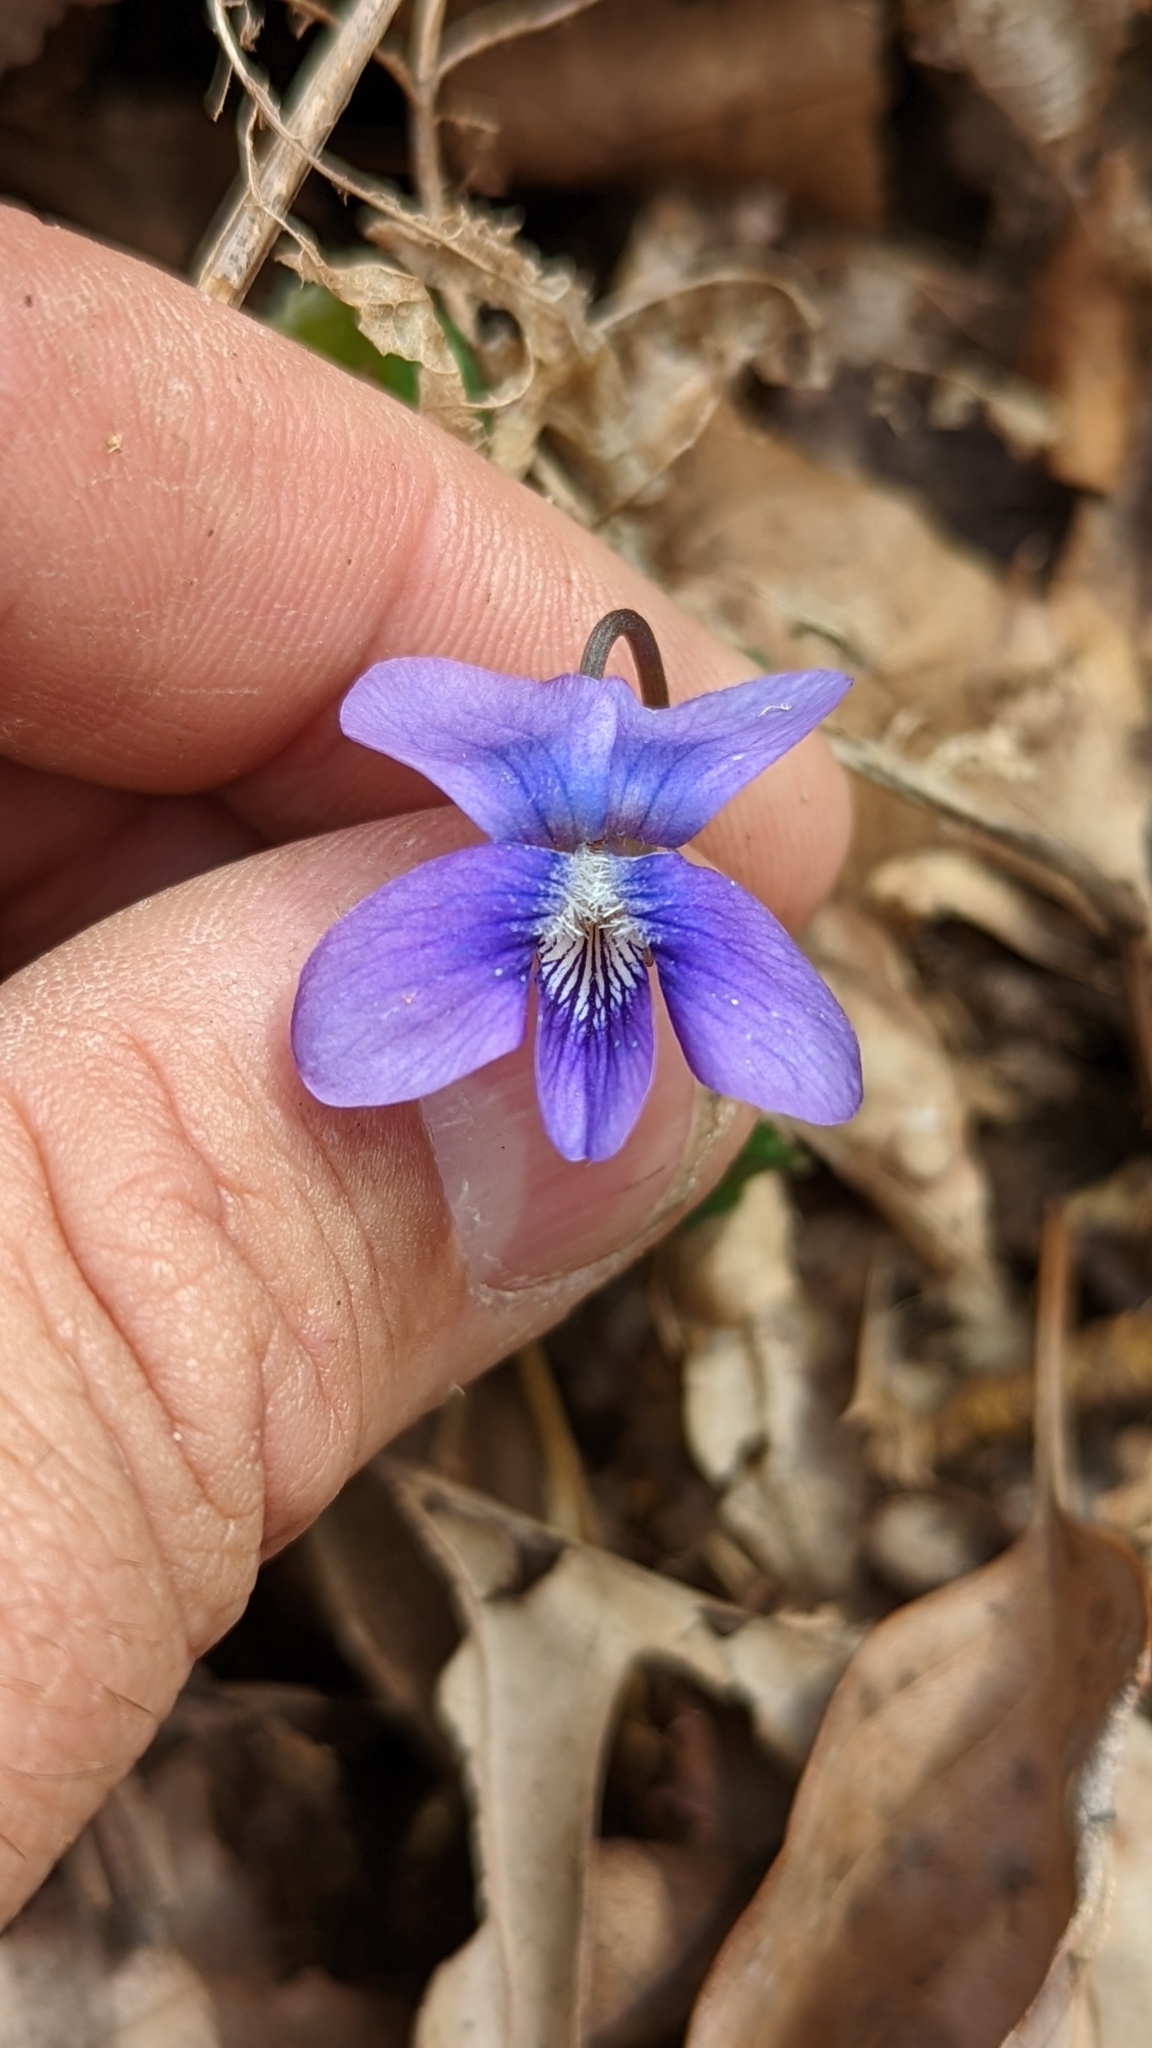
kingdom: Plantae
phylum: Tracheophyta
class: Magnoliopsida
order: Malpighiales
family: Violaceae
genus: Viola
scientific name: Viola sororia
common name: Dooryard violet
